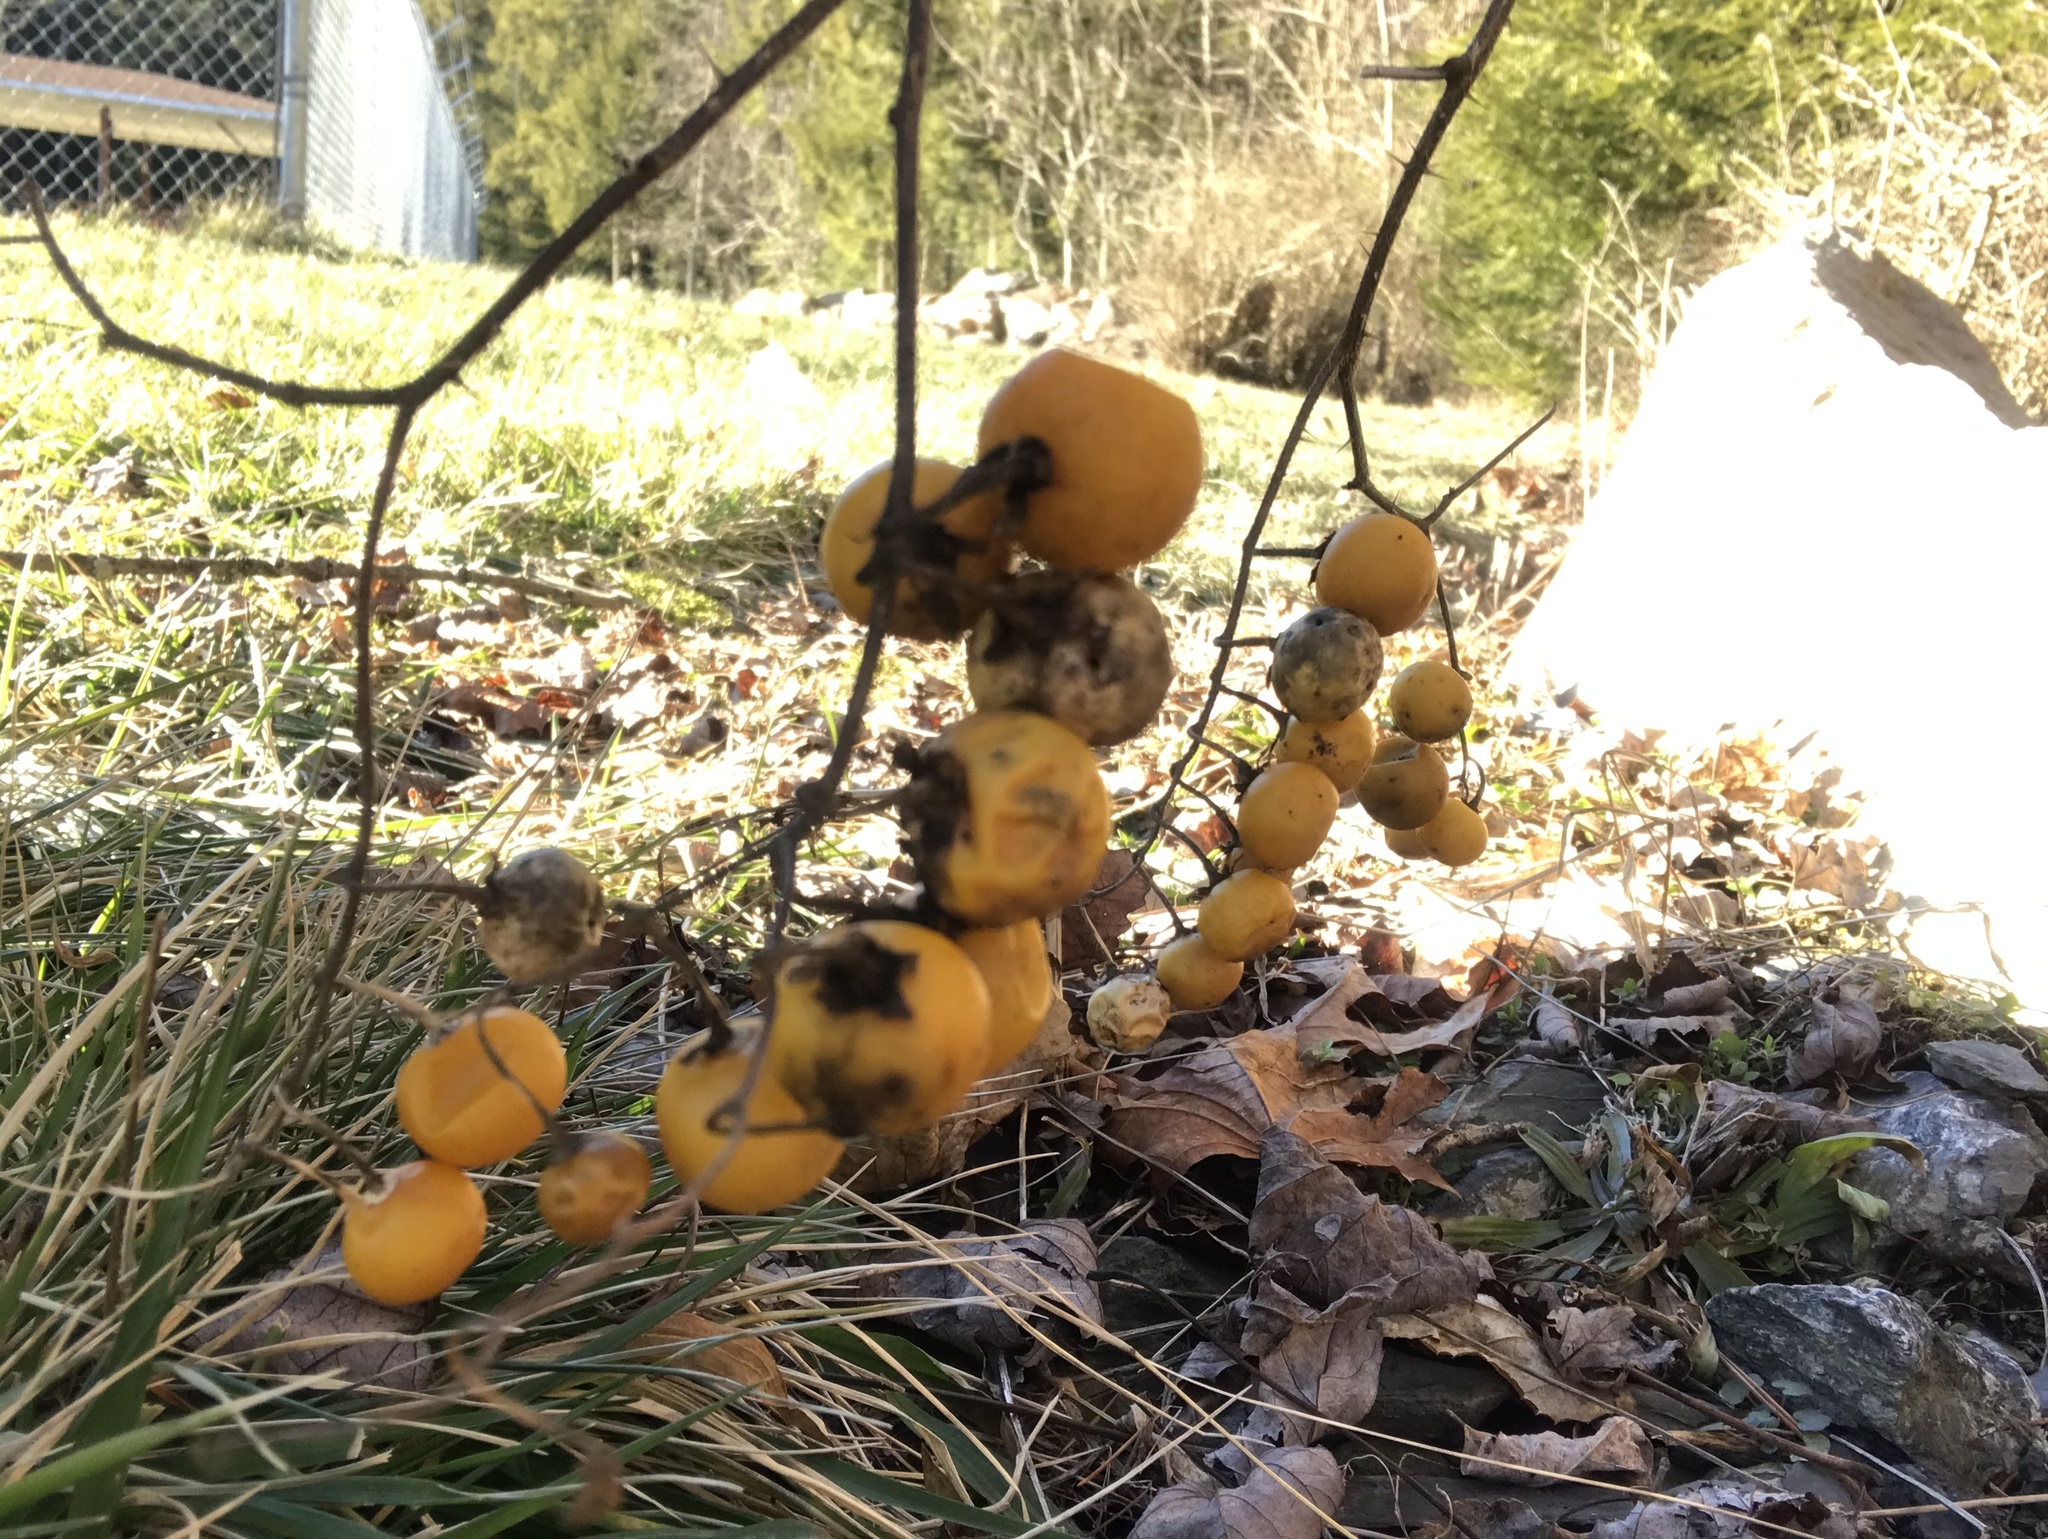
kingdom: Plantae
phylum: Tracheophyta
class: Magnoliopsida
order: Solanales
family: Solanaceae
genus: Solanum
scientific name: Solanum carolinense
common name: Horse-nettle
